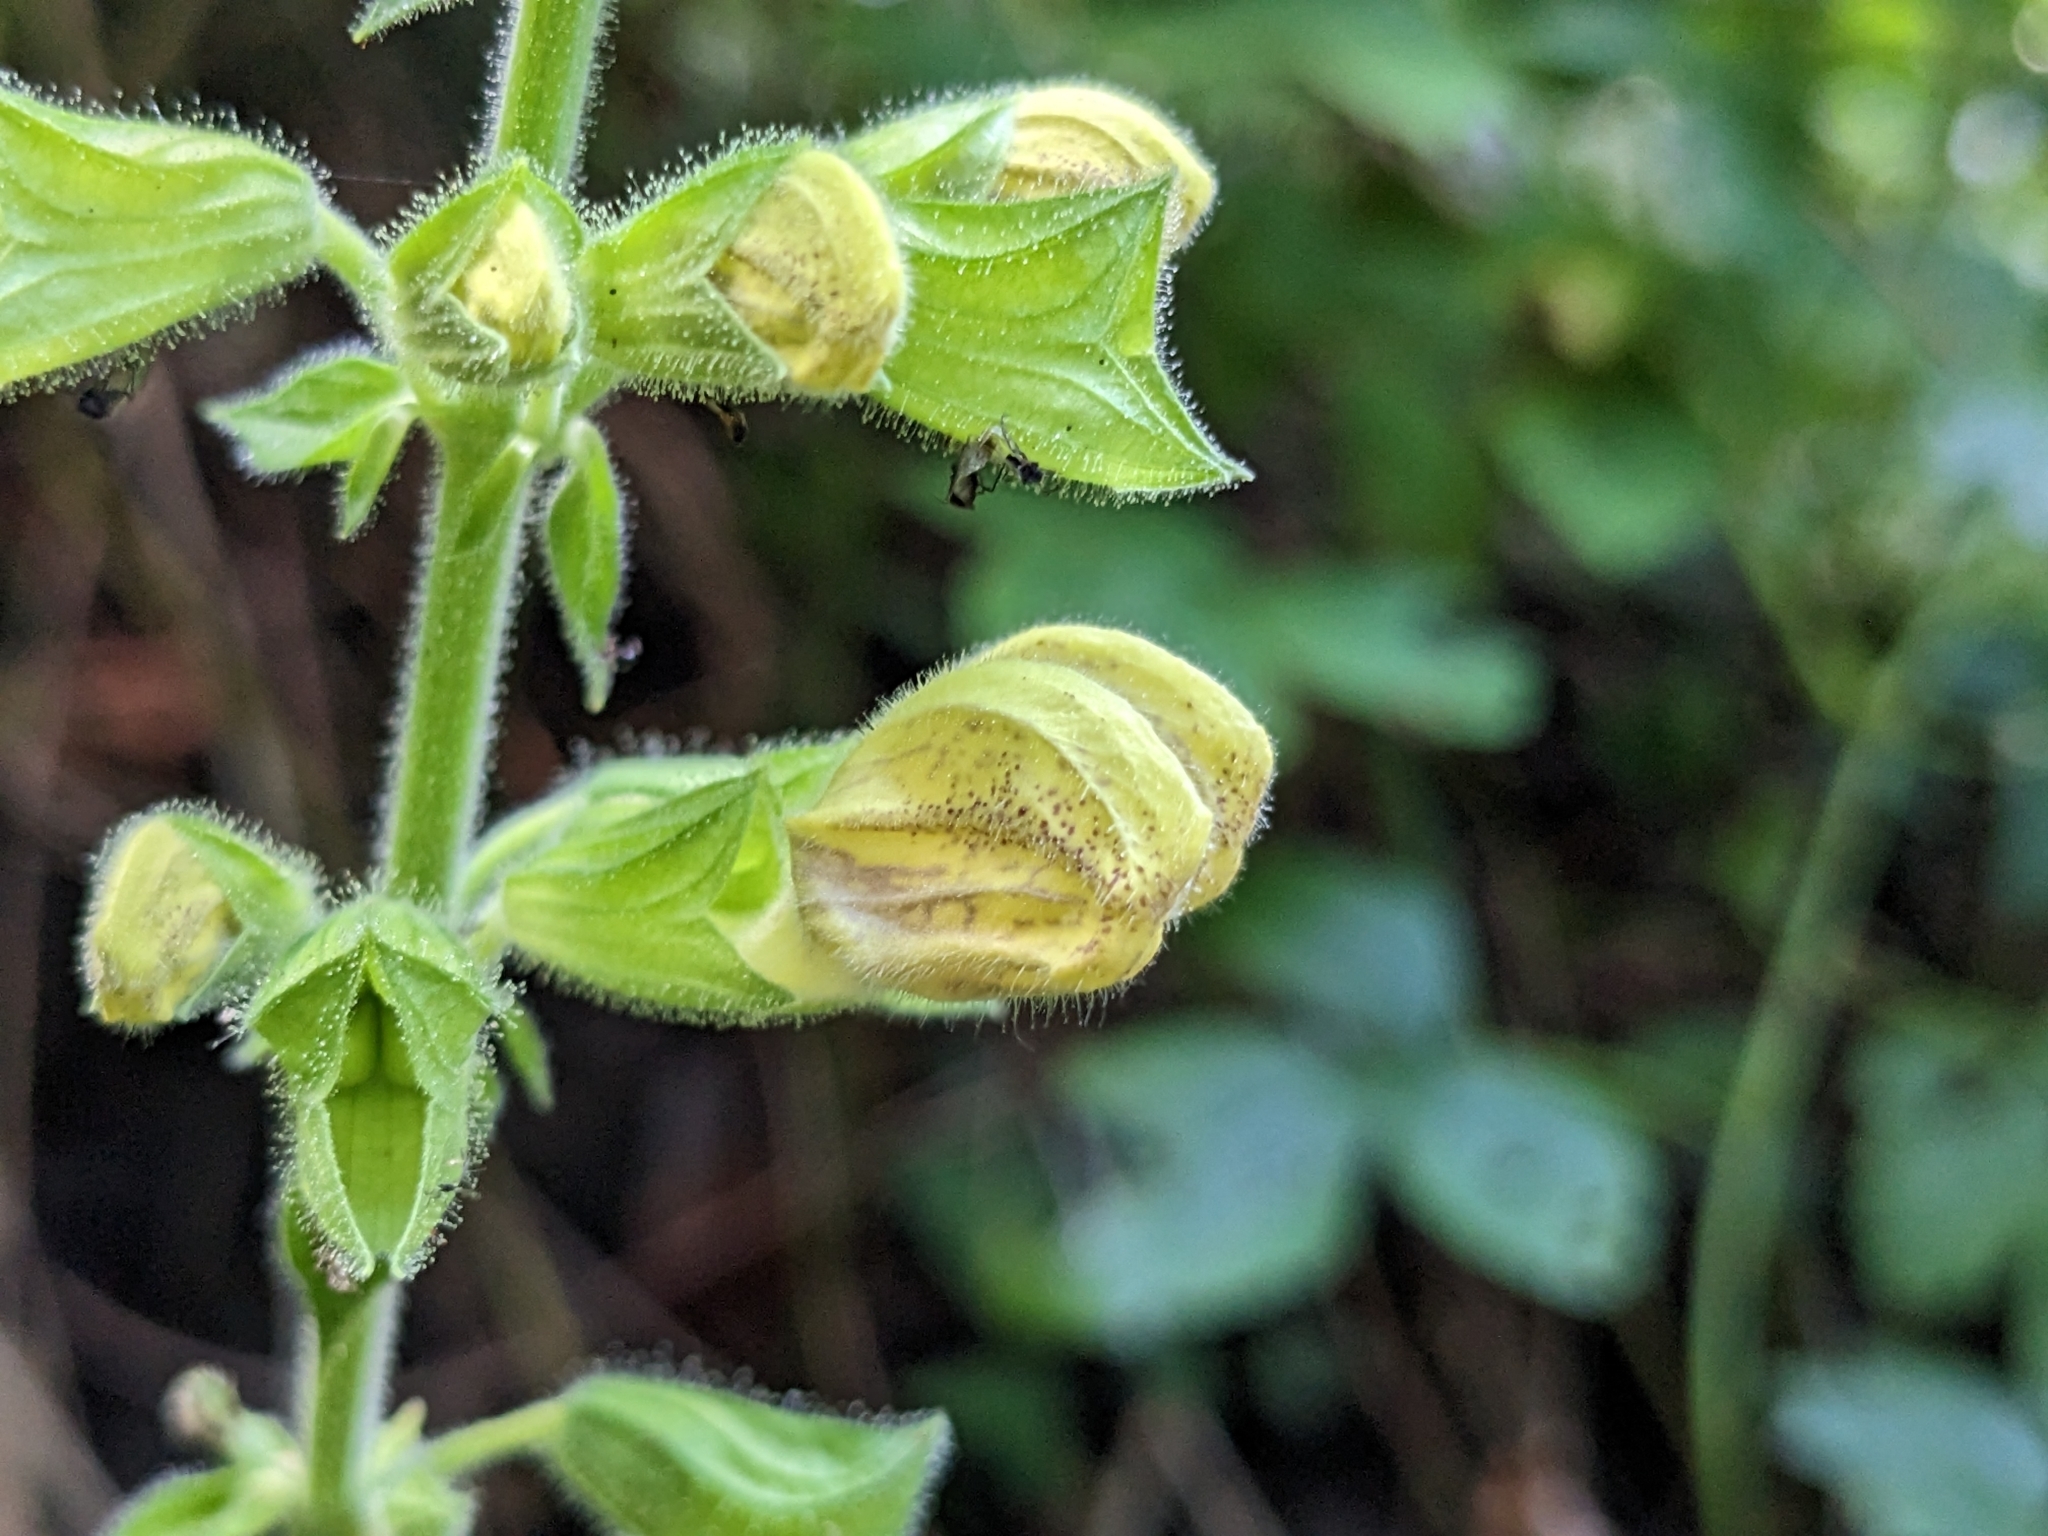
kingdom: Plantae
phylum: Tracheophyta
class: Magnoliopsida
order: Lamiales
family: Lamiaceae
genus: Salvia
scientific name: Salvia glutinosa
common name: Sticky clary
